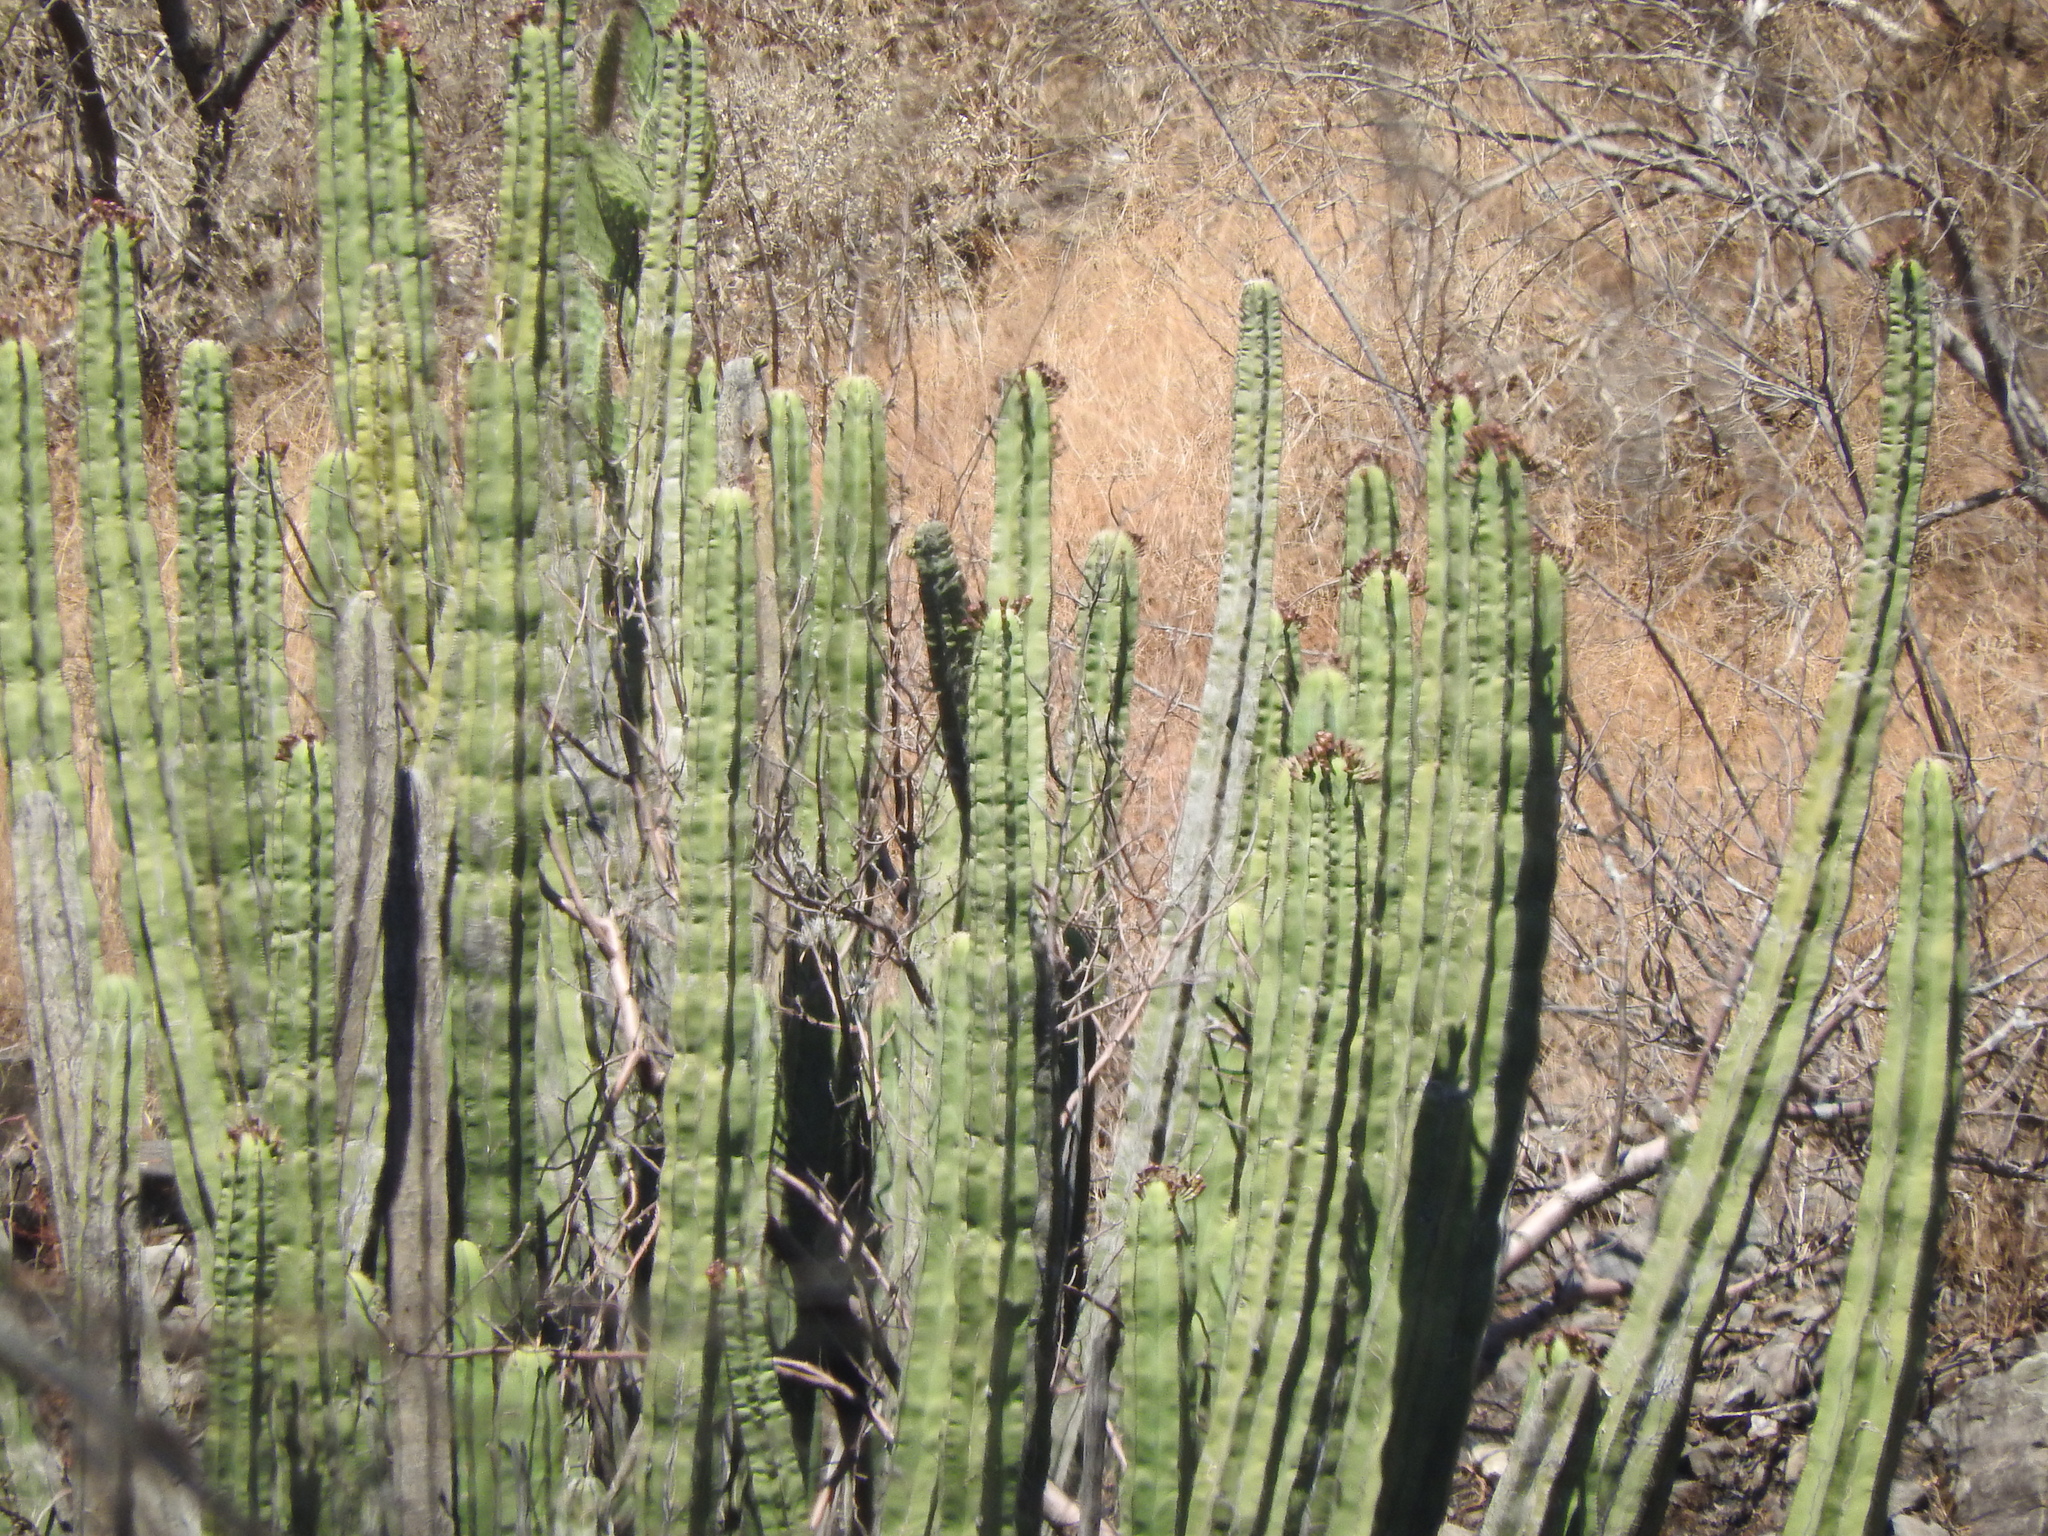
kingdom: Plantae
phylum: Tracheophyta
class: Magnoliopsida
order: Caryophyllales
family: Cactaceae
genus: Stenocereus
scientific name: Stenocereus dumortieri
